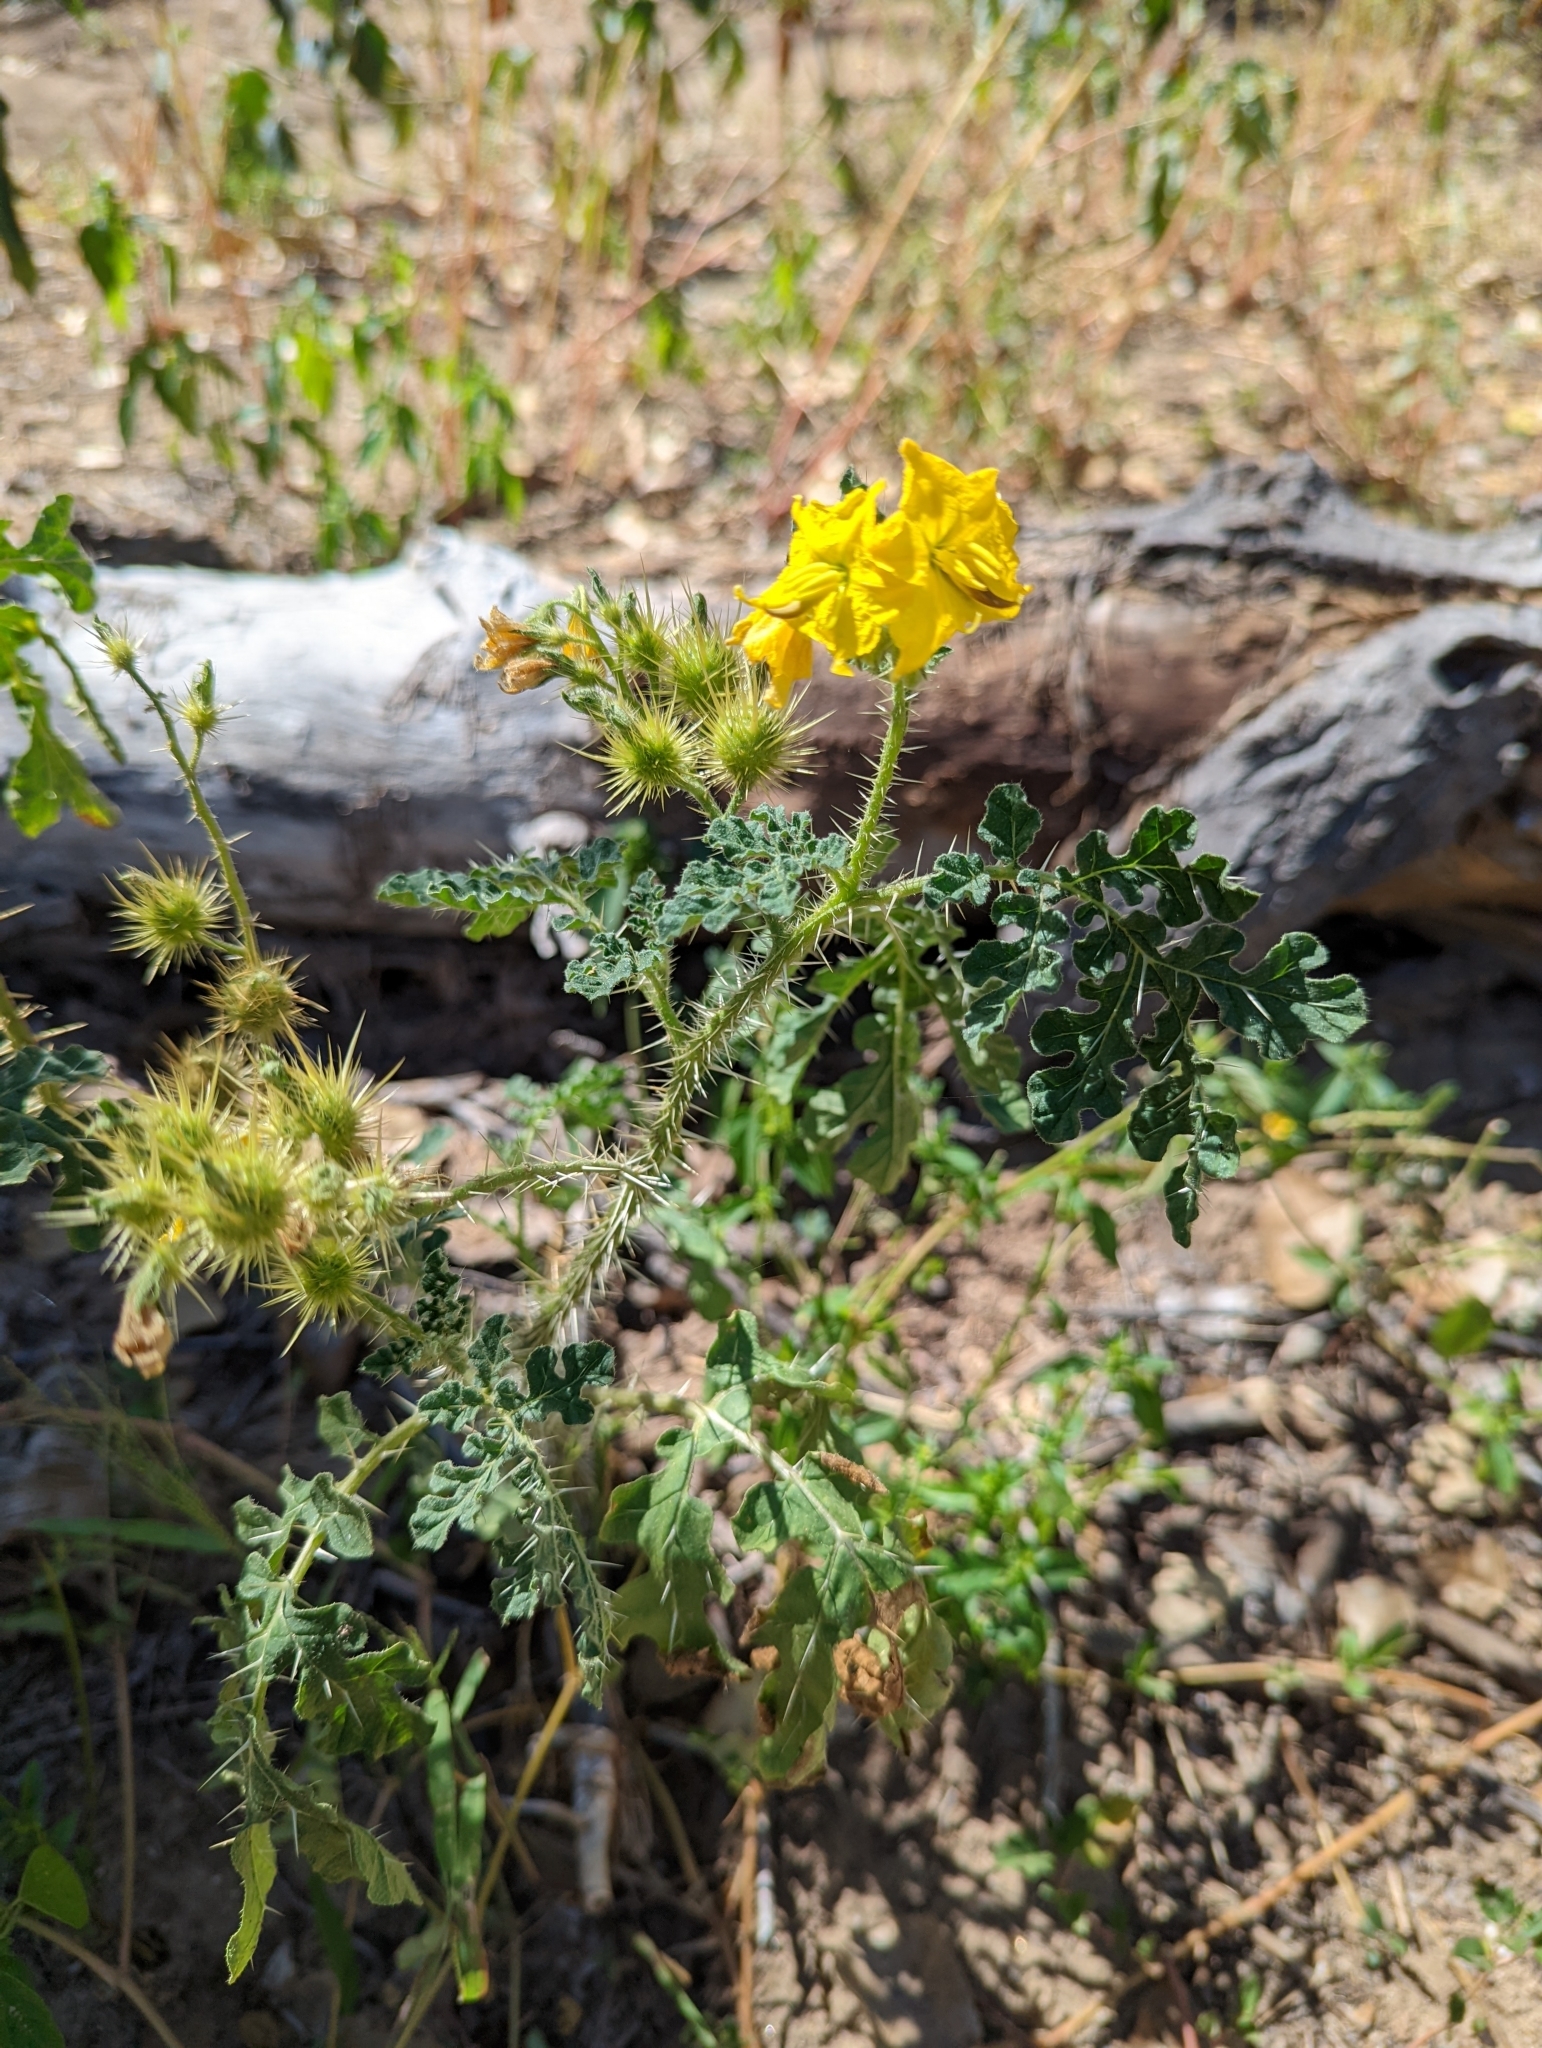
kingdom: Plantae
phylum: Tracheophyta
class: Magnoliopsida
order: Solanales
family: Solanaceae
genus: Solanum
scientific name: Solanum angustifolium
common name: Buffalobur nightshade
